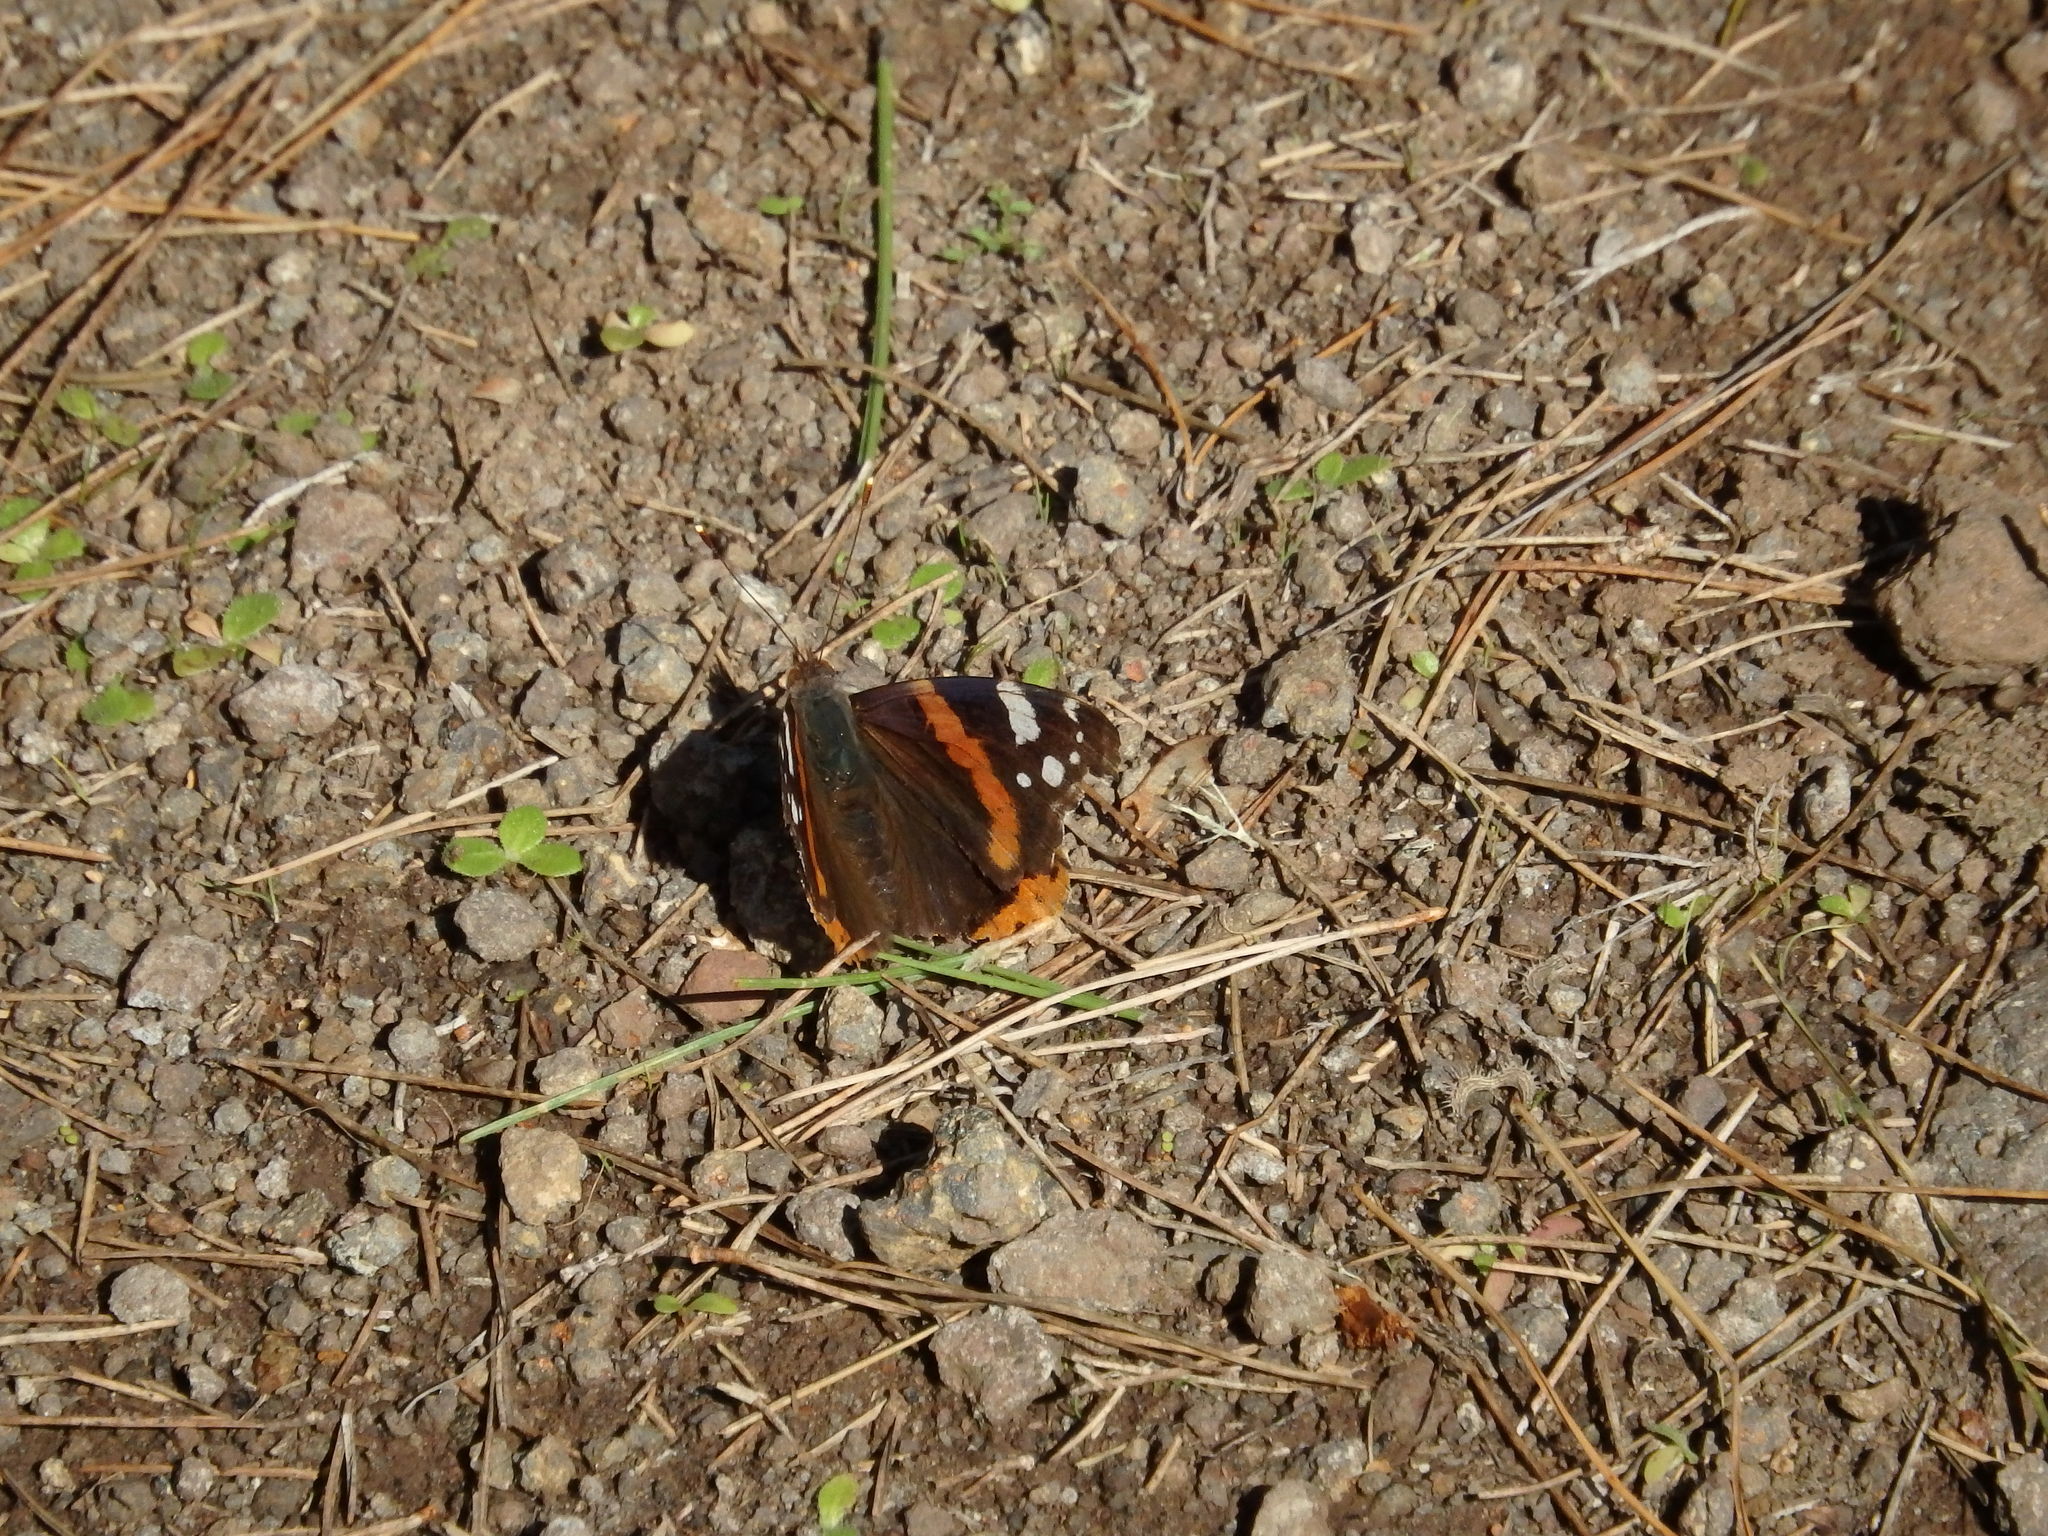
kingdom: Animalia
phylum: Arthropoda
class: Insecta
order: Lepidoptera
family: Nymphalidae
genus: Vanessa
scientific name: Vanessa atalanta
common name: Red admiral
